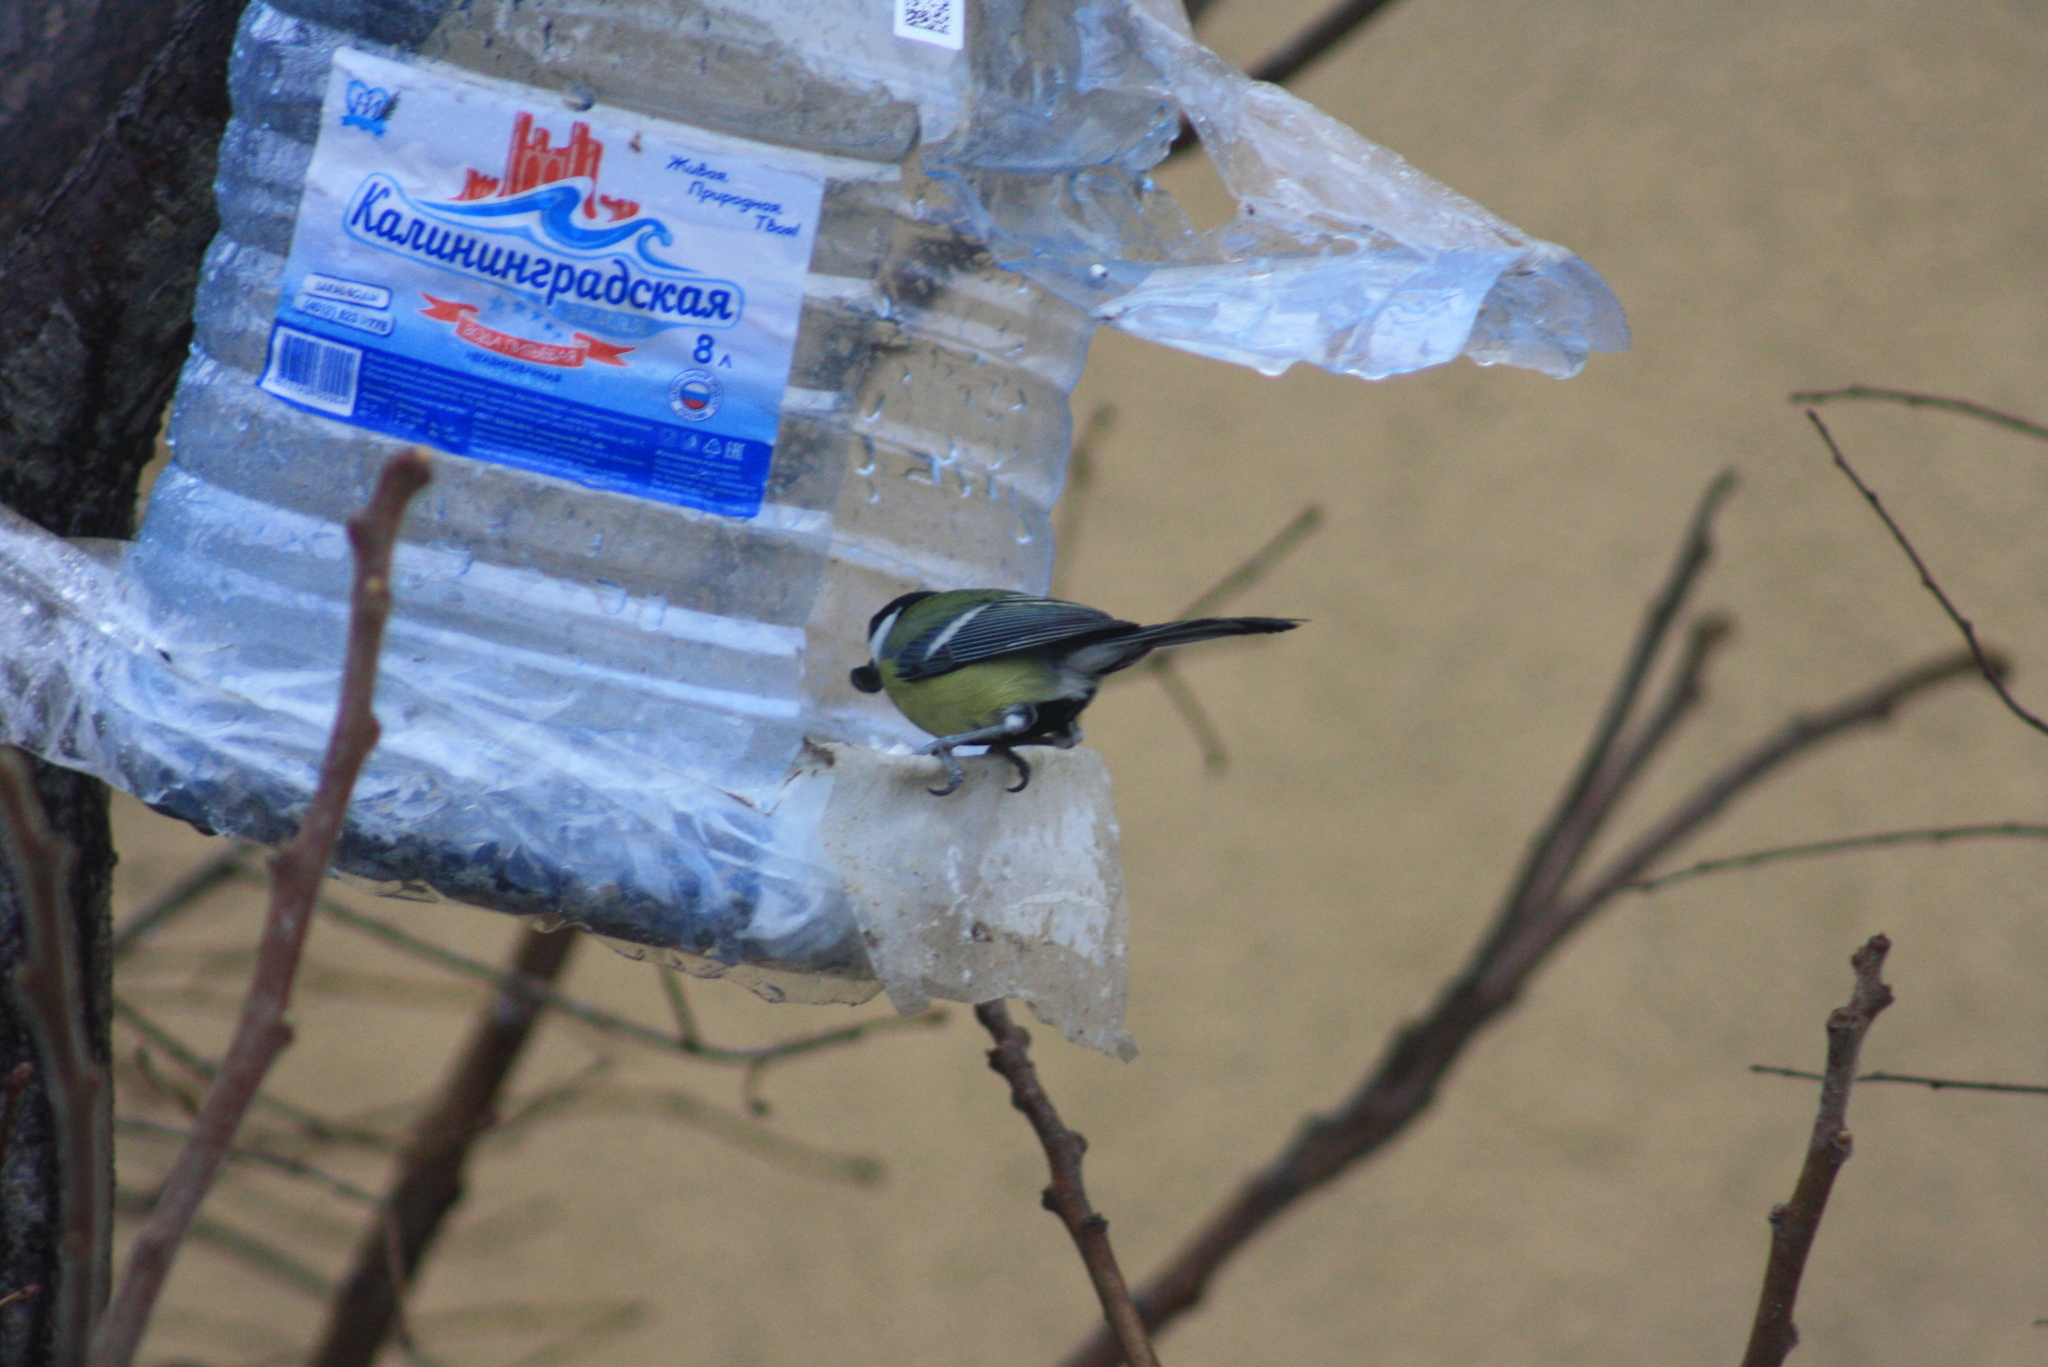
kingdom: Animalia
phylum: Chordata
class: Aves
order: Passeriformes
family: Paridae
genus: Parus
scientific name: Parus major
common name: Great tit
